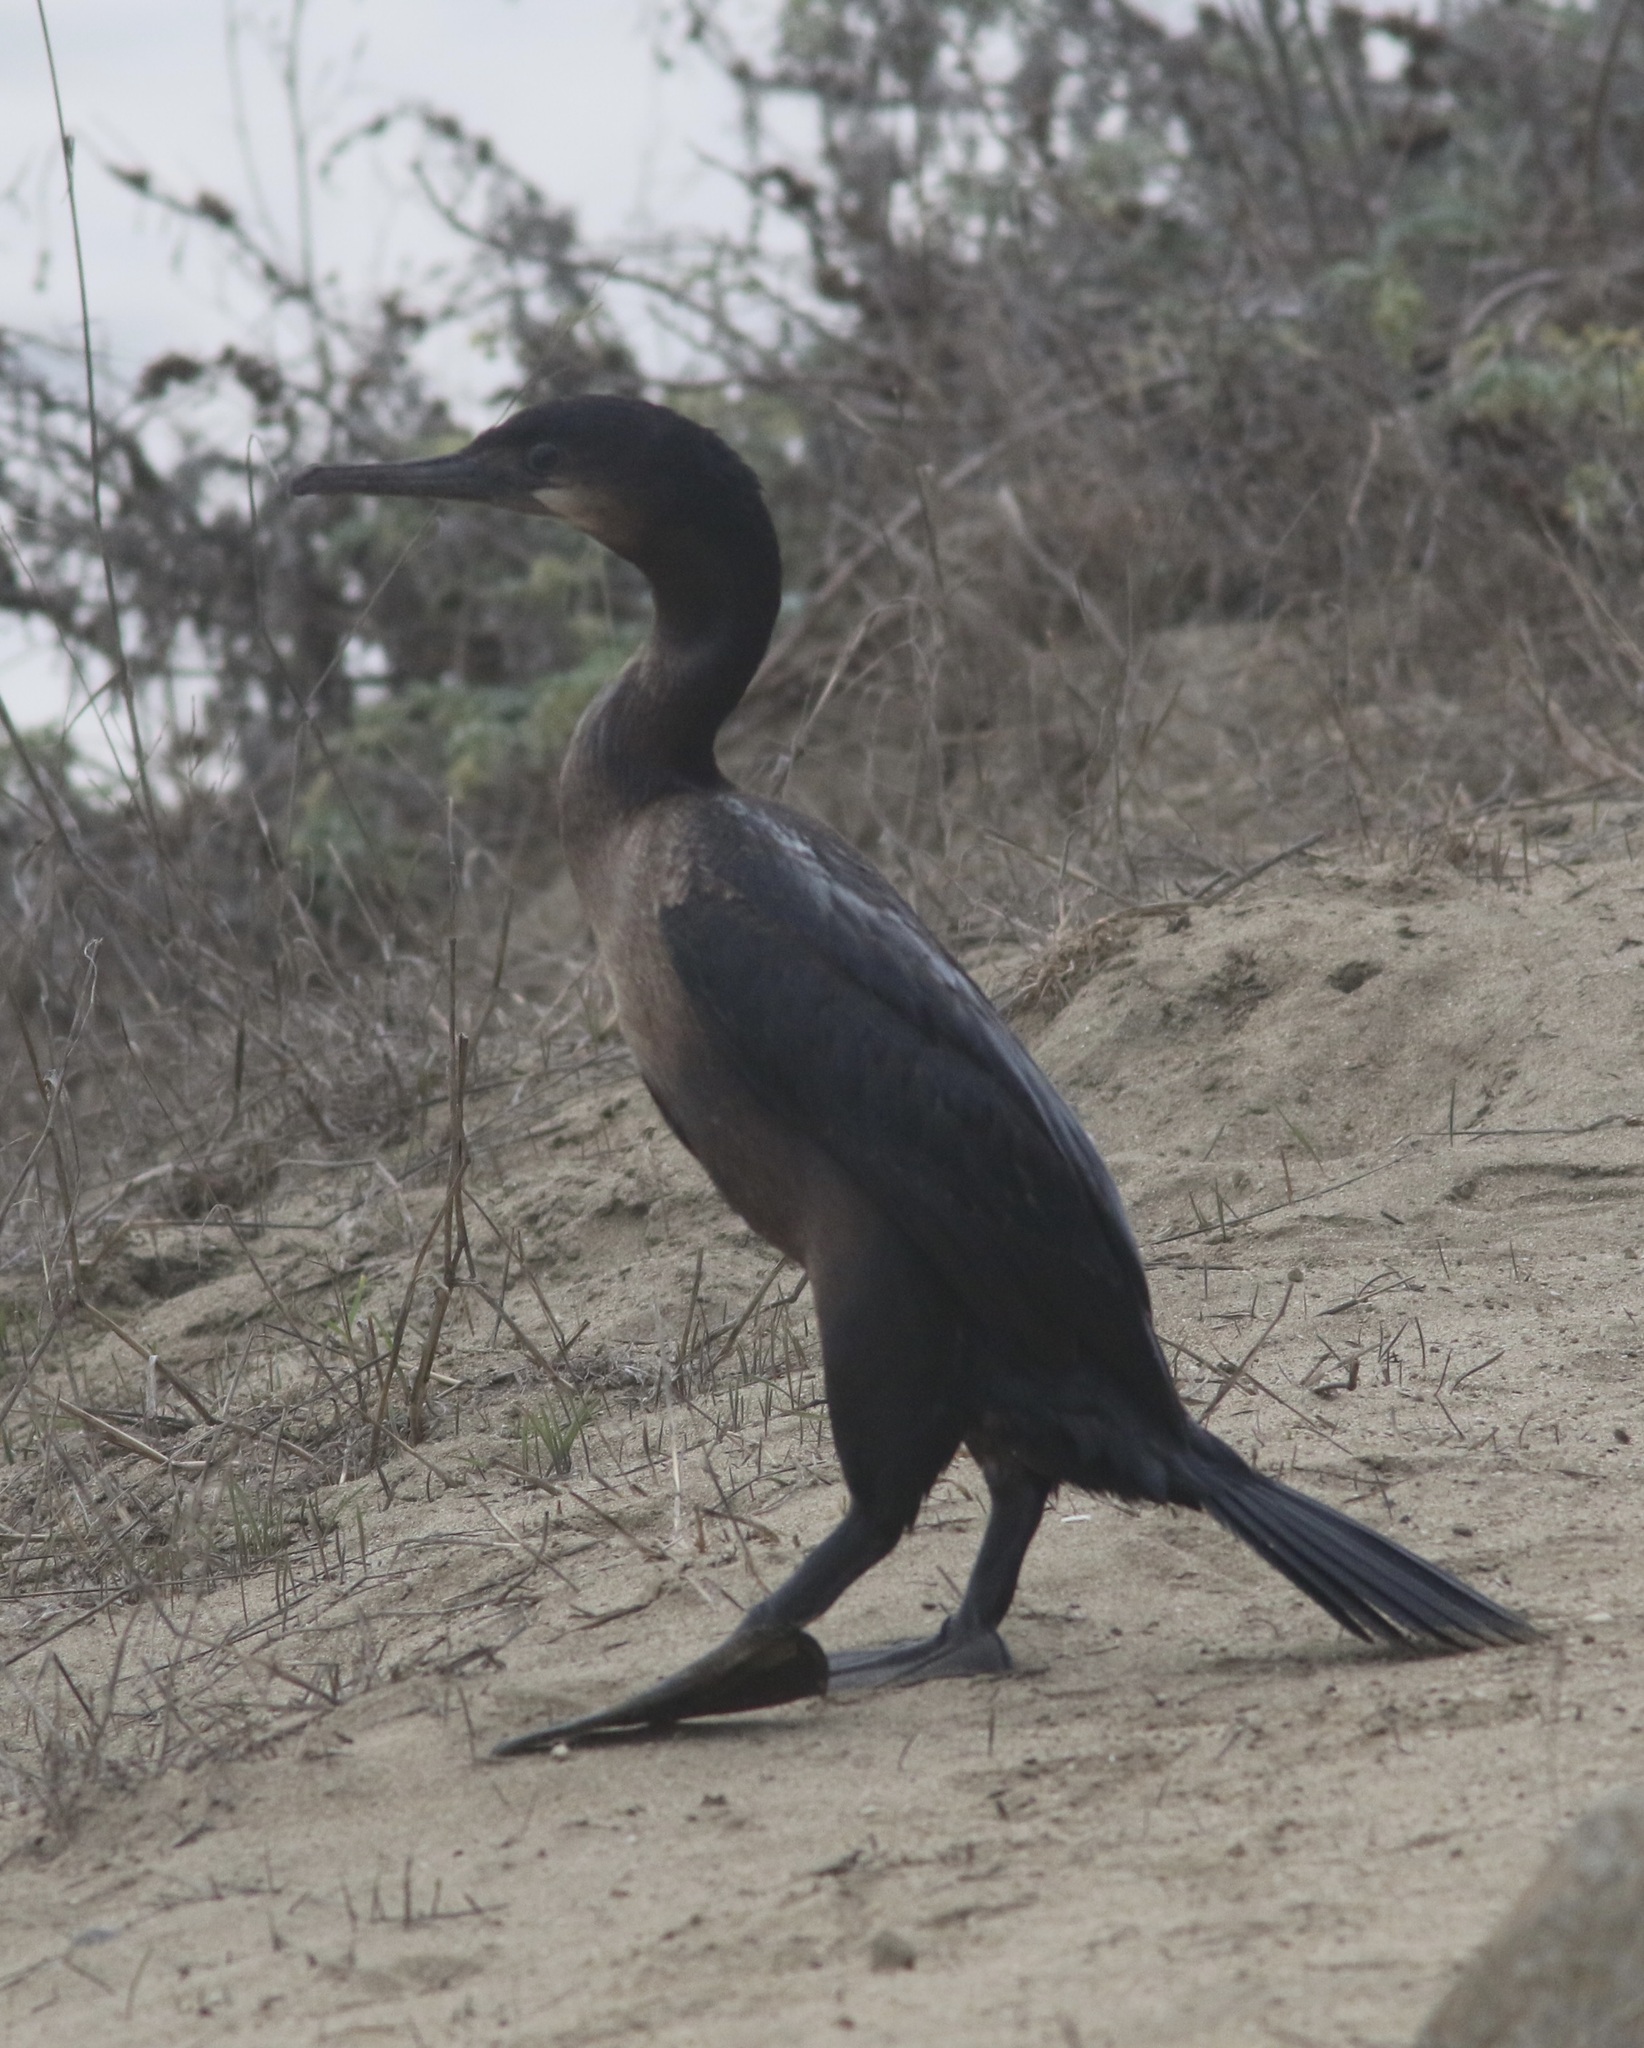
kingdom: Animalia
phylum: Chordata
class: Aves
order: Suliformes
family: Phalacrocoracidae
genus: Urile
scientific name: Urile penicillatus
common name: Brandt's cormorant
